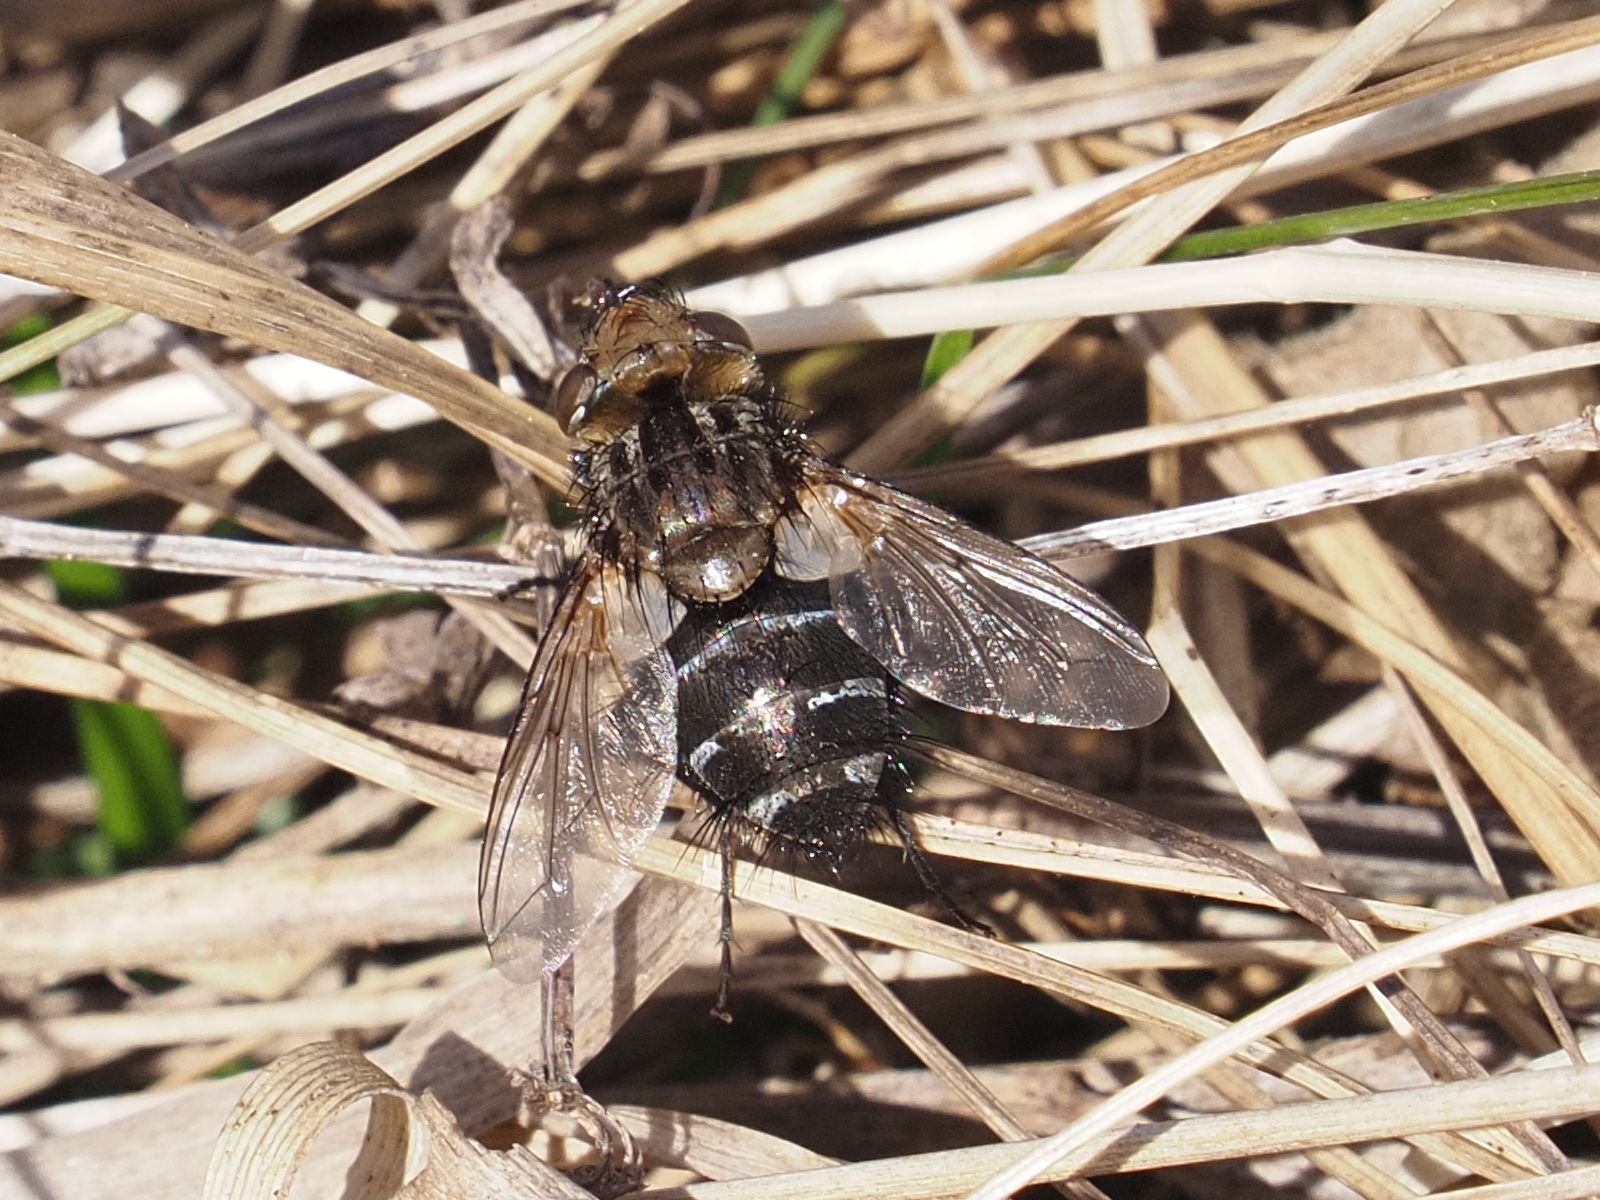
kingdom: Animalia
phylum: Arthropoda
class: Insecta
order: Diptera
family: Tachinidae
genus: Gonia
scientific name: Gonia picea
